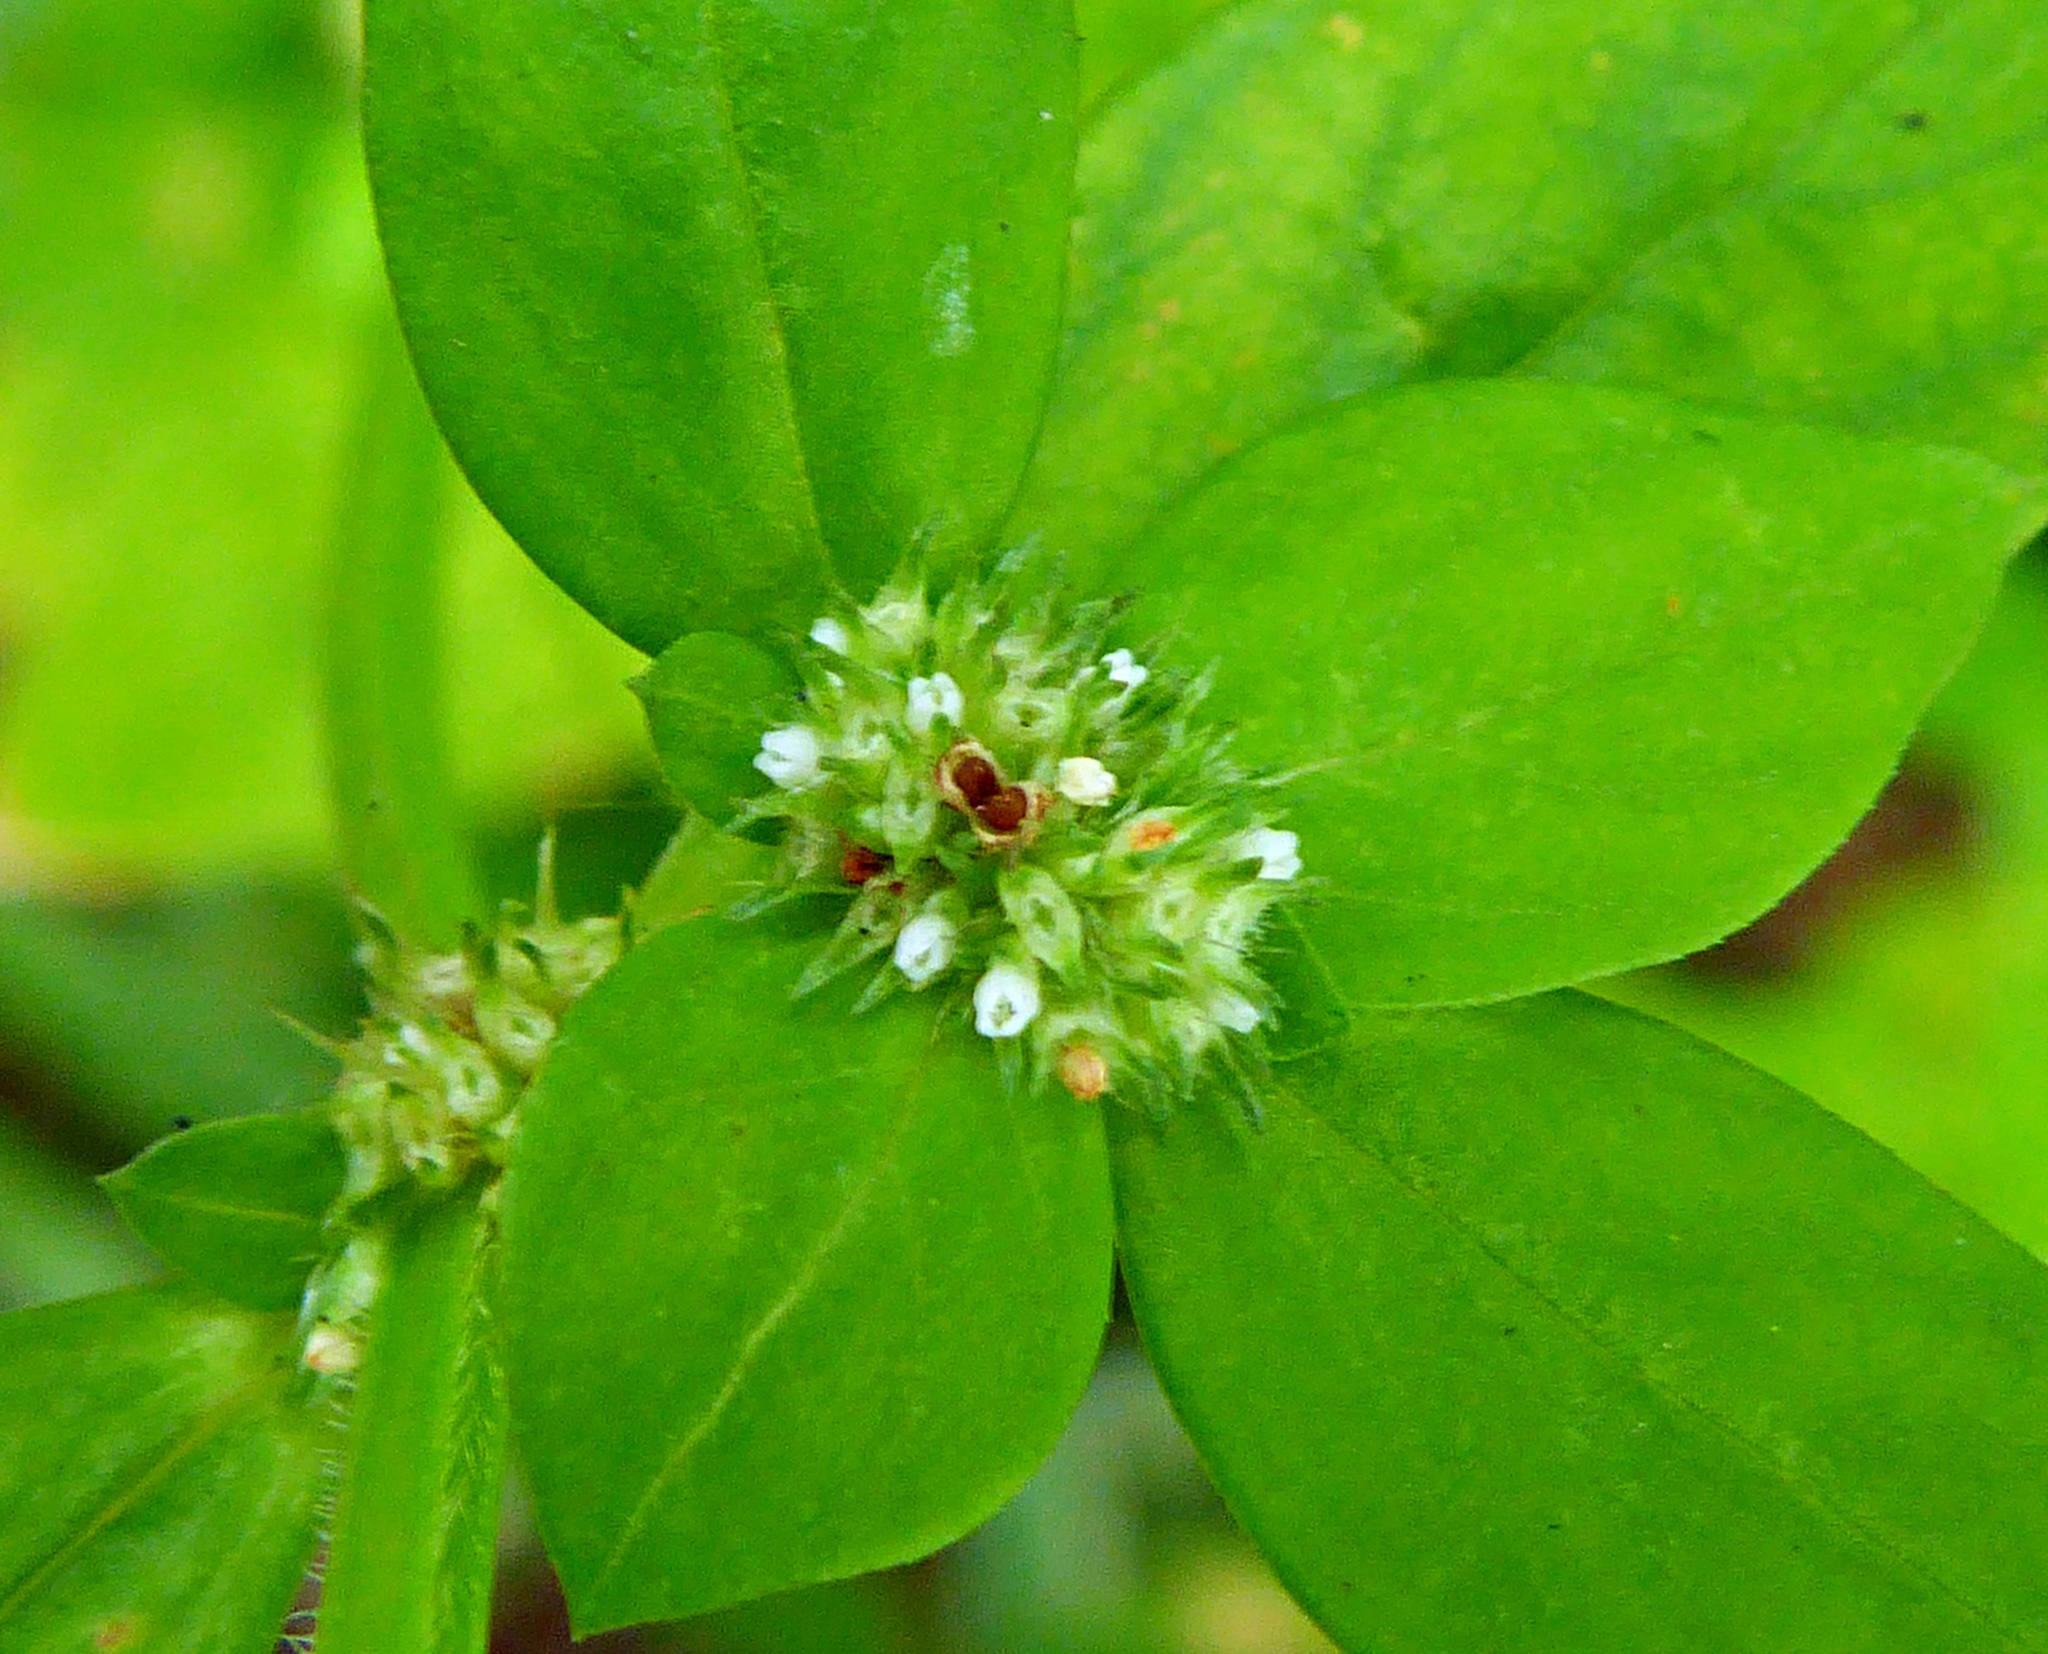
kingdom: Plantae
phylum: Tracheophyta
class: Magnoliopsida
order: Gentianales
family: Rubiaceae
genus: Spermacoce
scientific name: Spermacoce exilis
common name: Pacific false buttonweed
